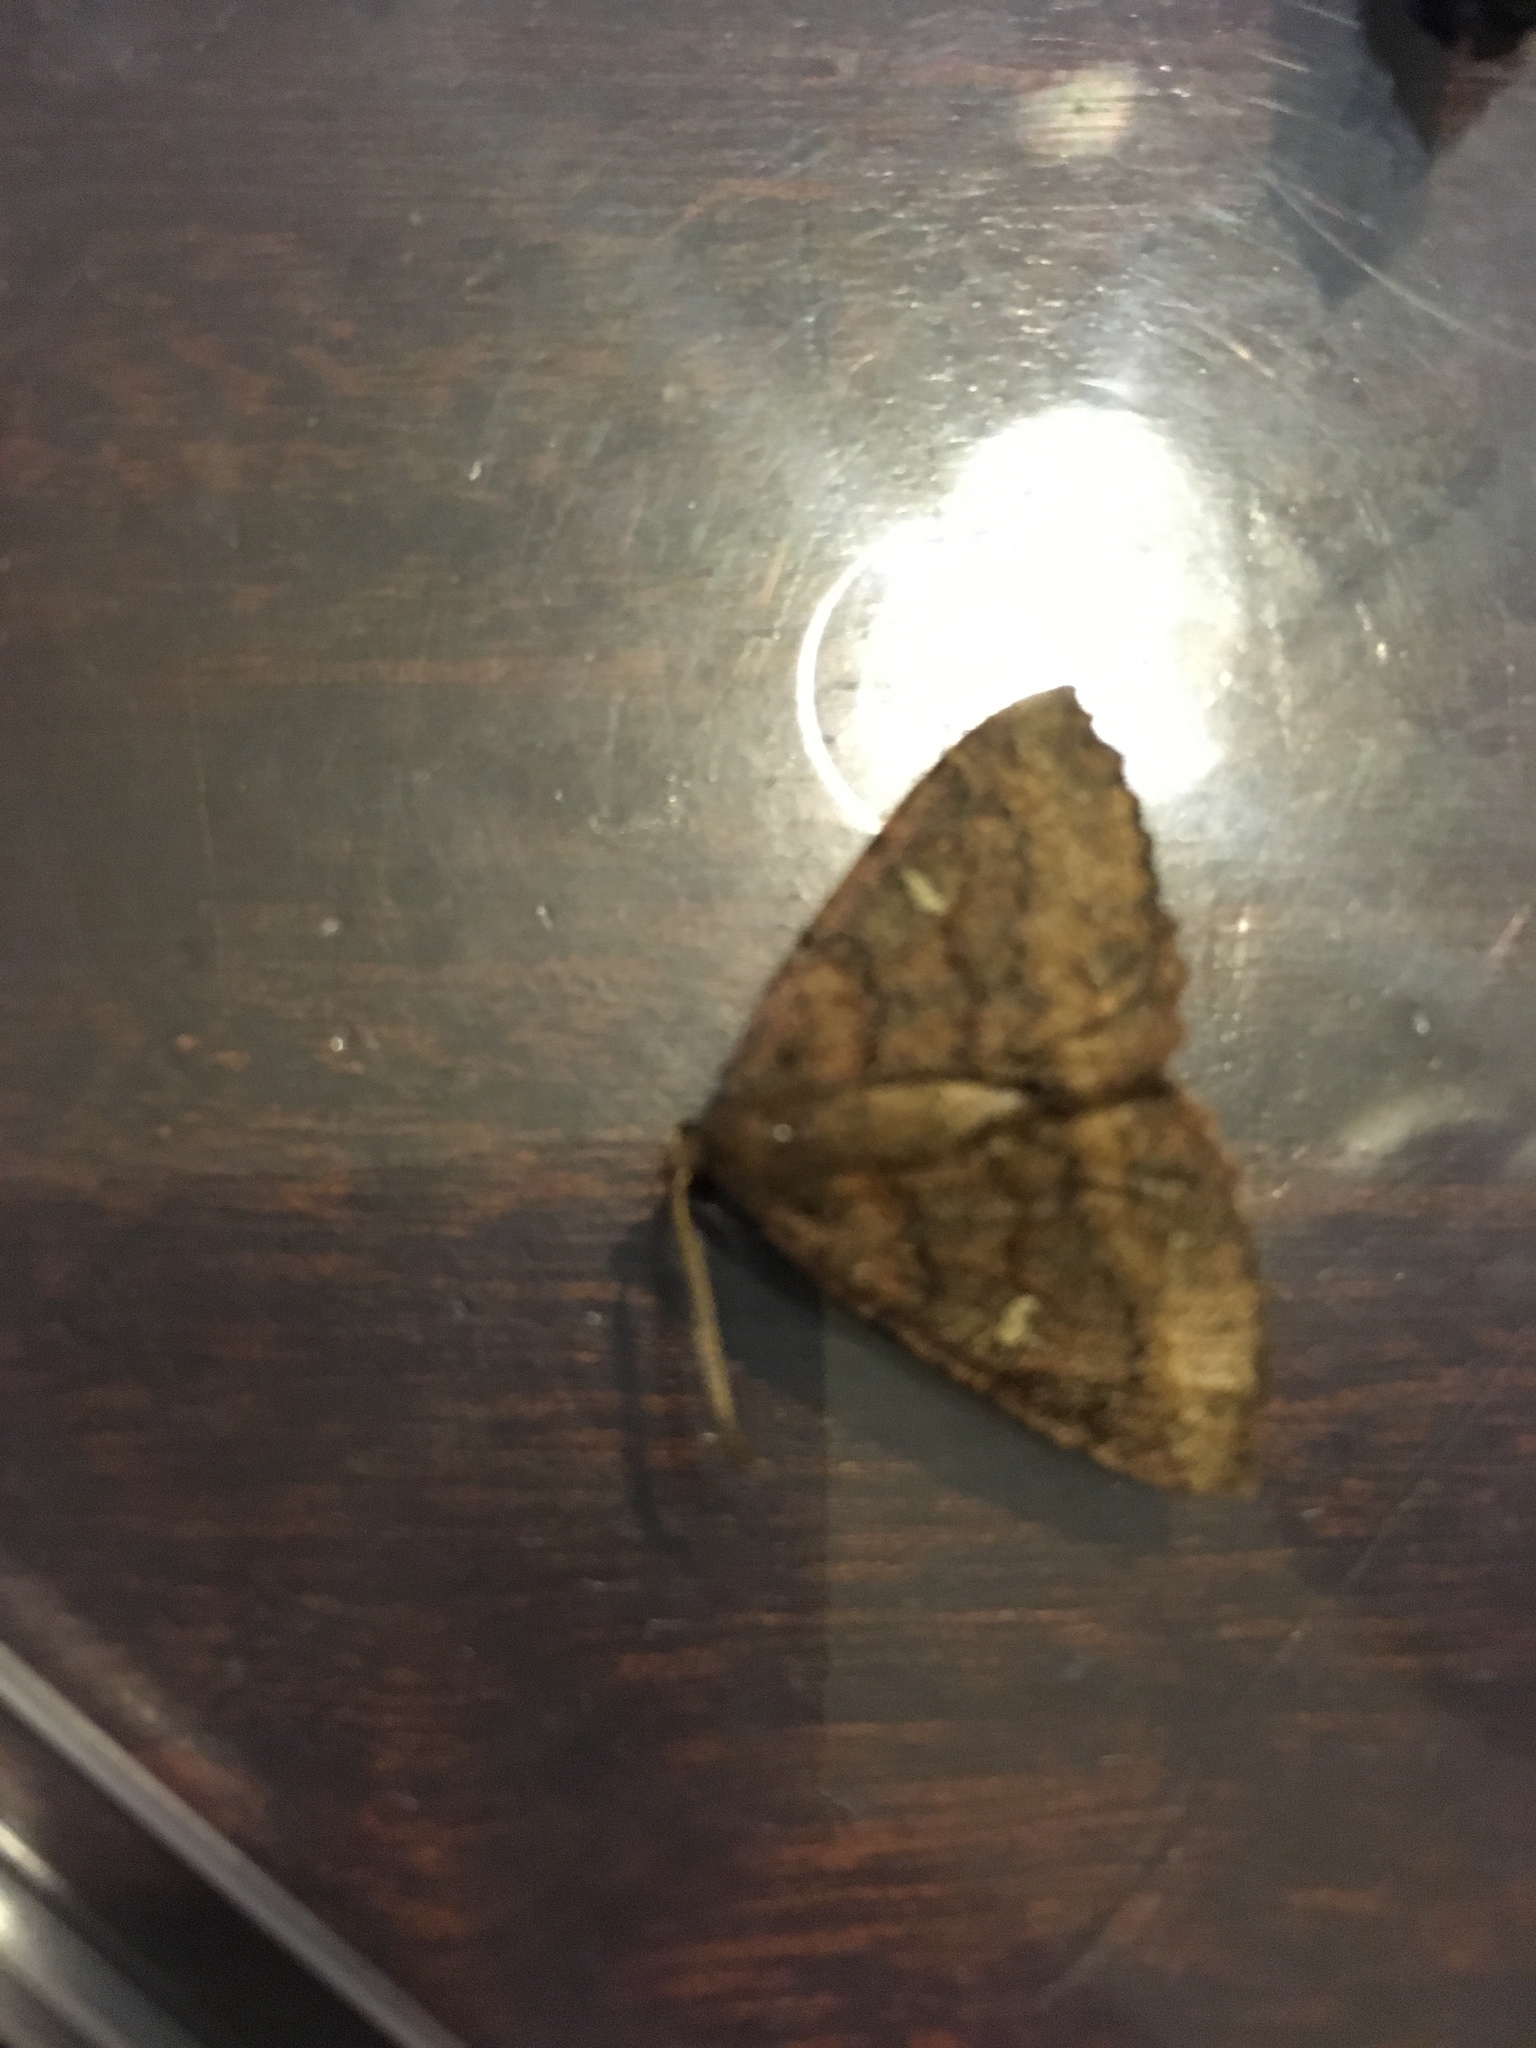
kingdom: Animalia
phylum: Arthropoda
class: Insecta
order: Lepidoptera
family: Geometridae
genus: Cleora
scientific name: Cleora scriptaria
